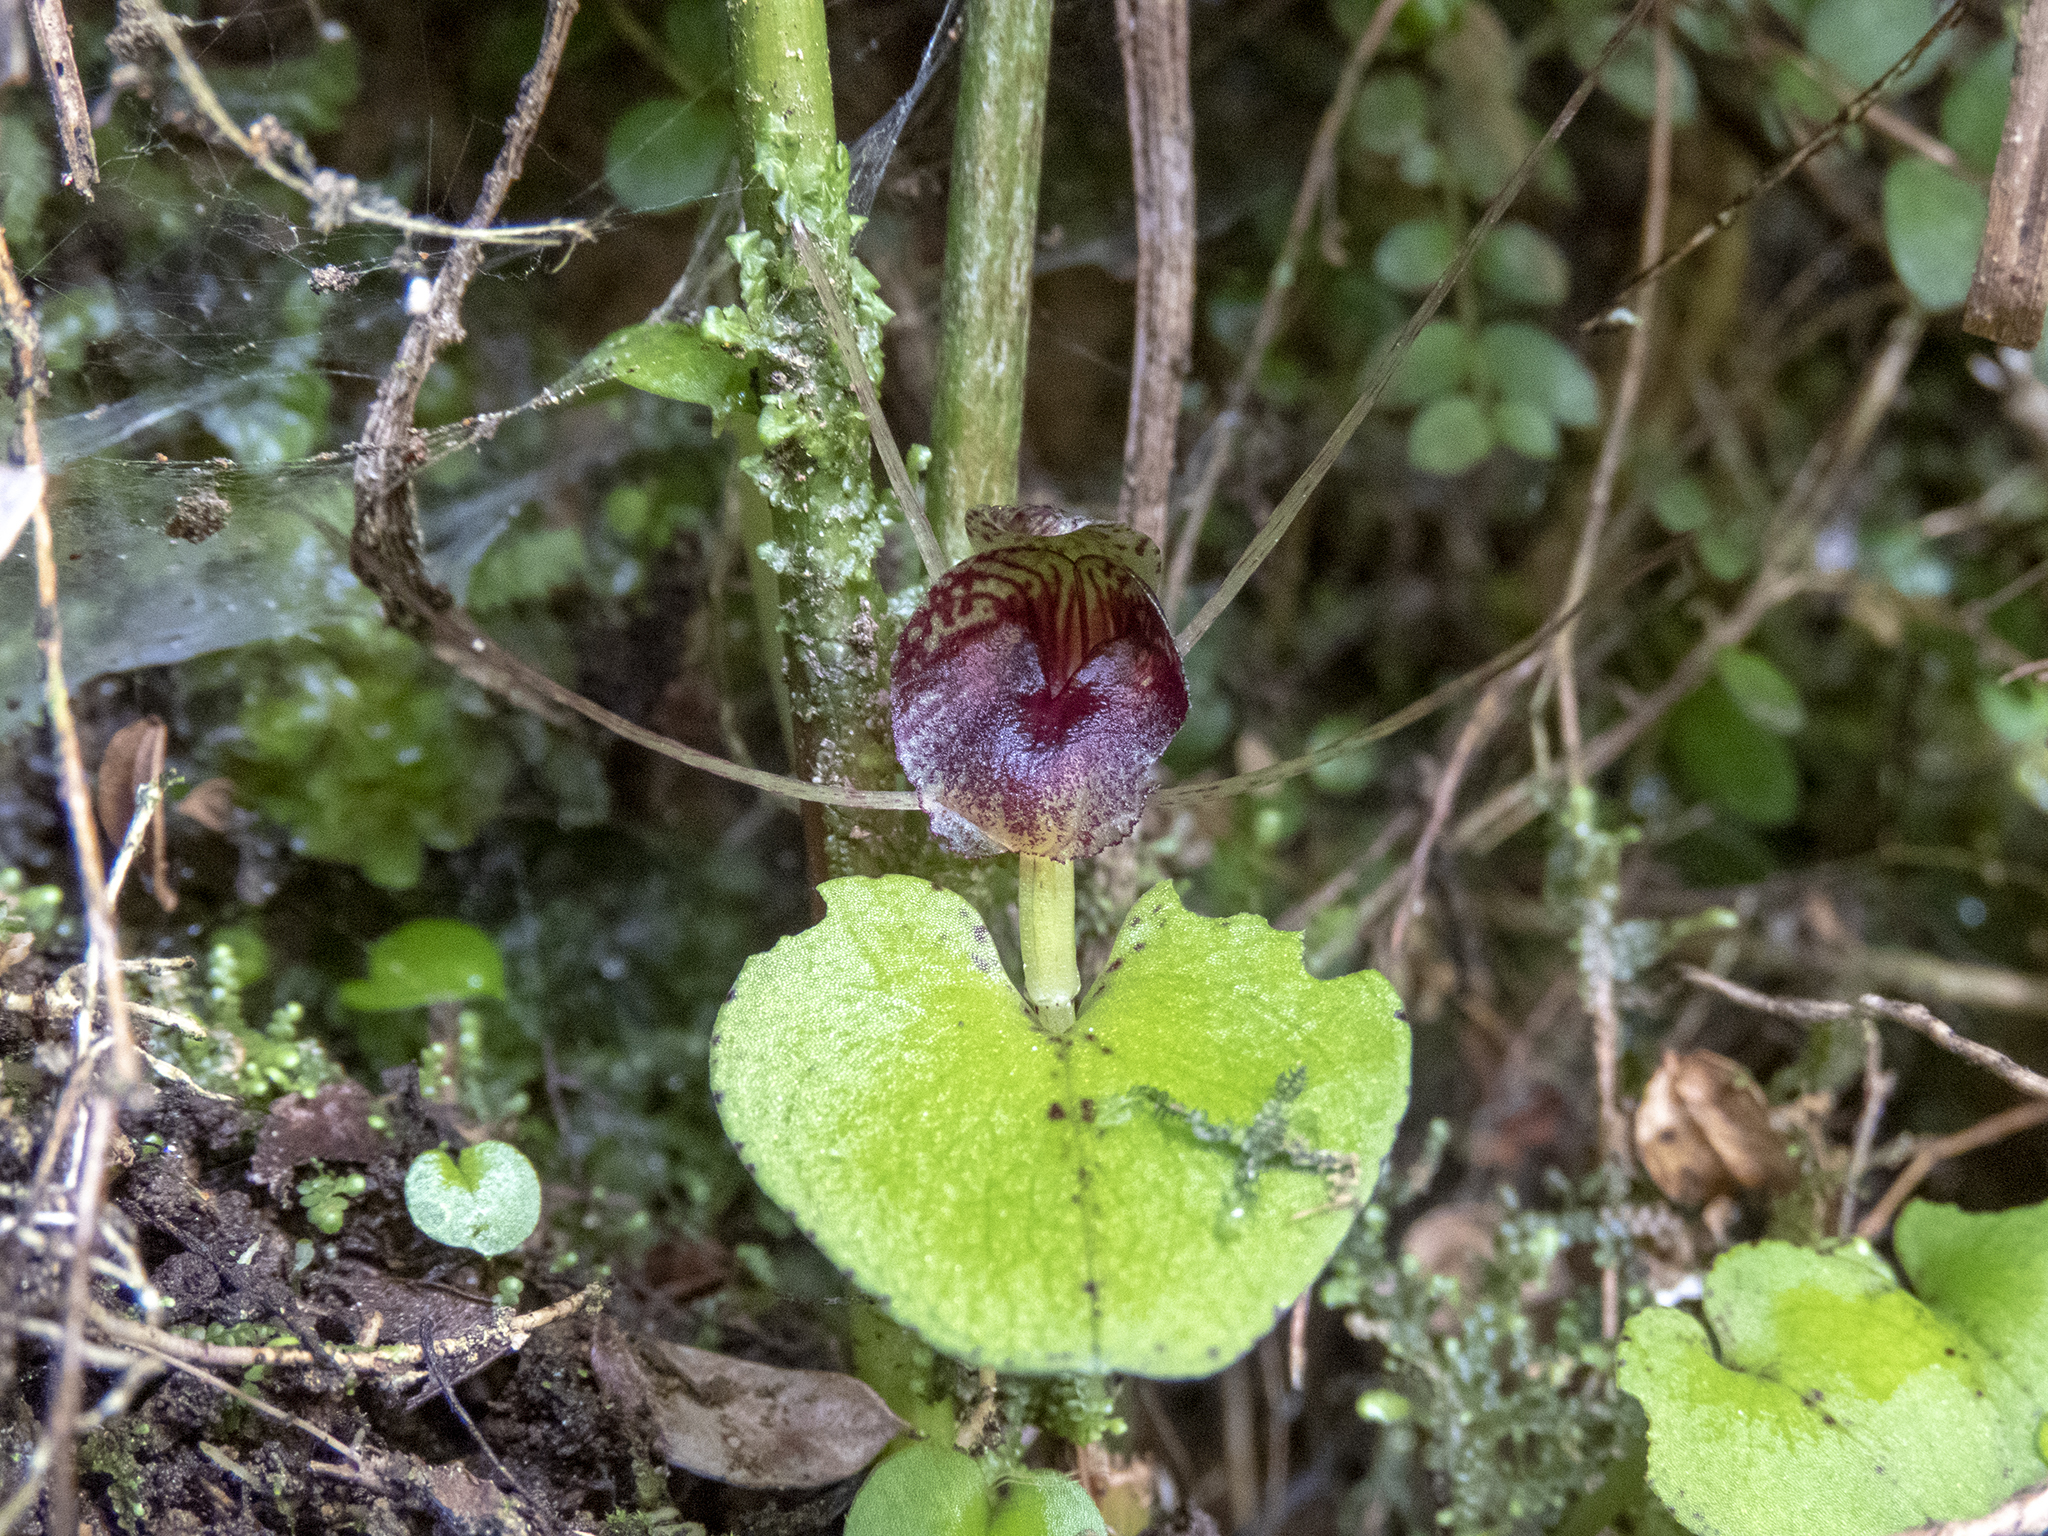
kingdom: Plantae
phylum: Tracheophyta
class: Liliopsida
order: Asparagales
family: Orchidaceae
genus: Corybas
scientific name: Corybas rivularis
